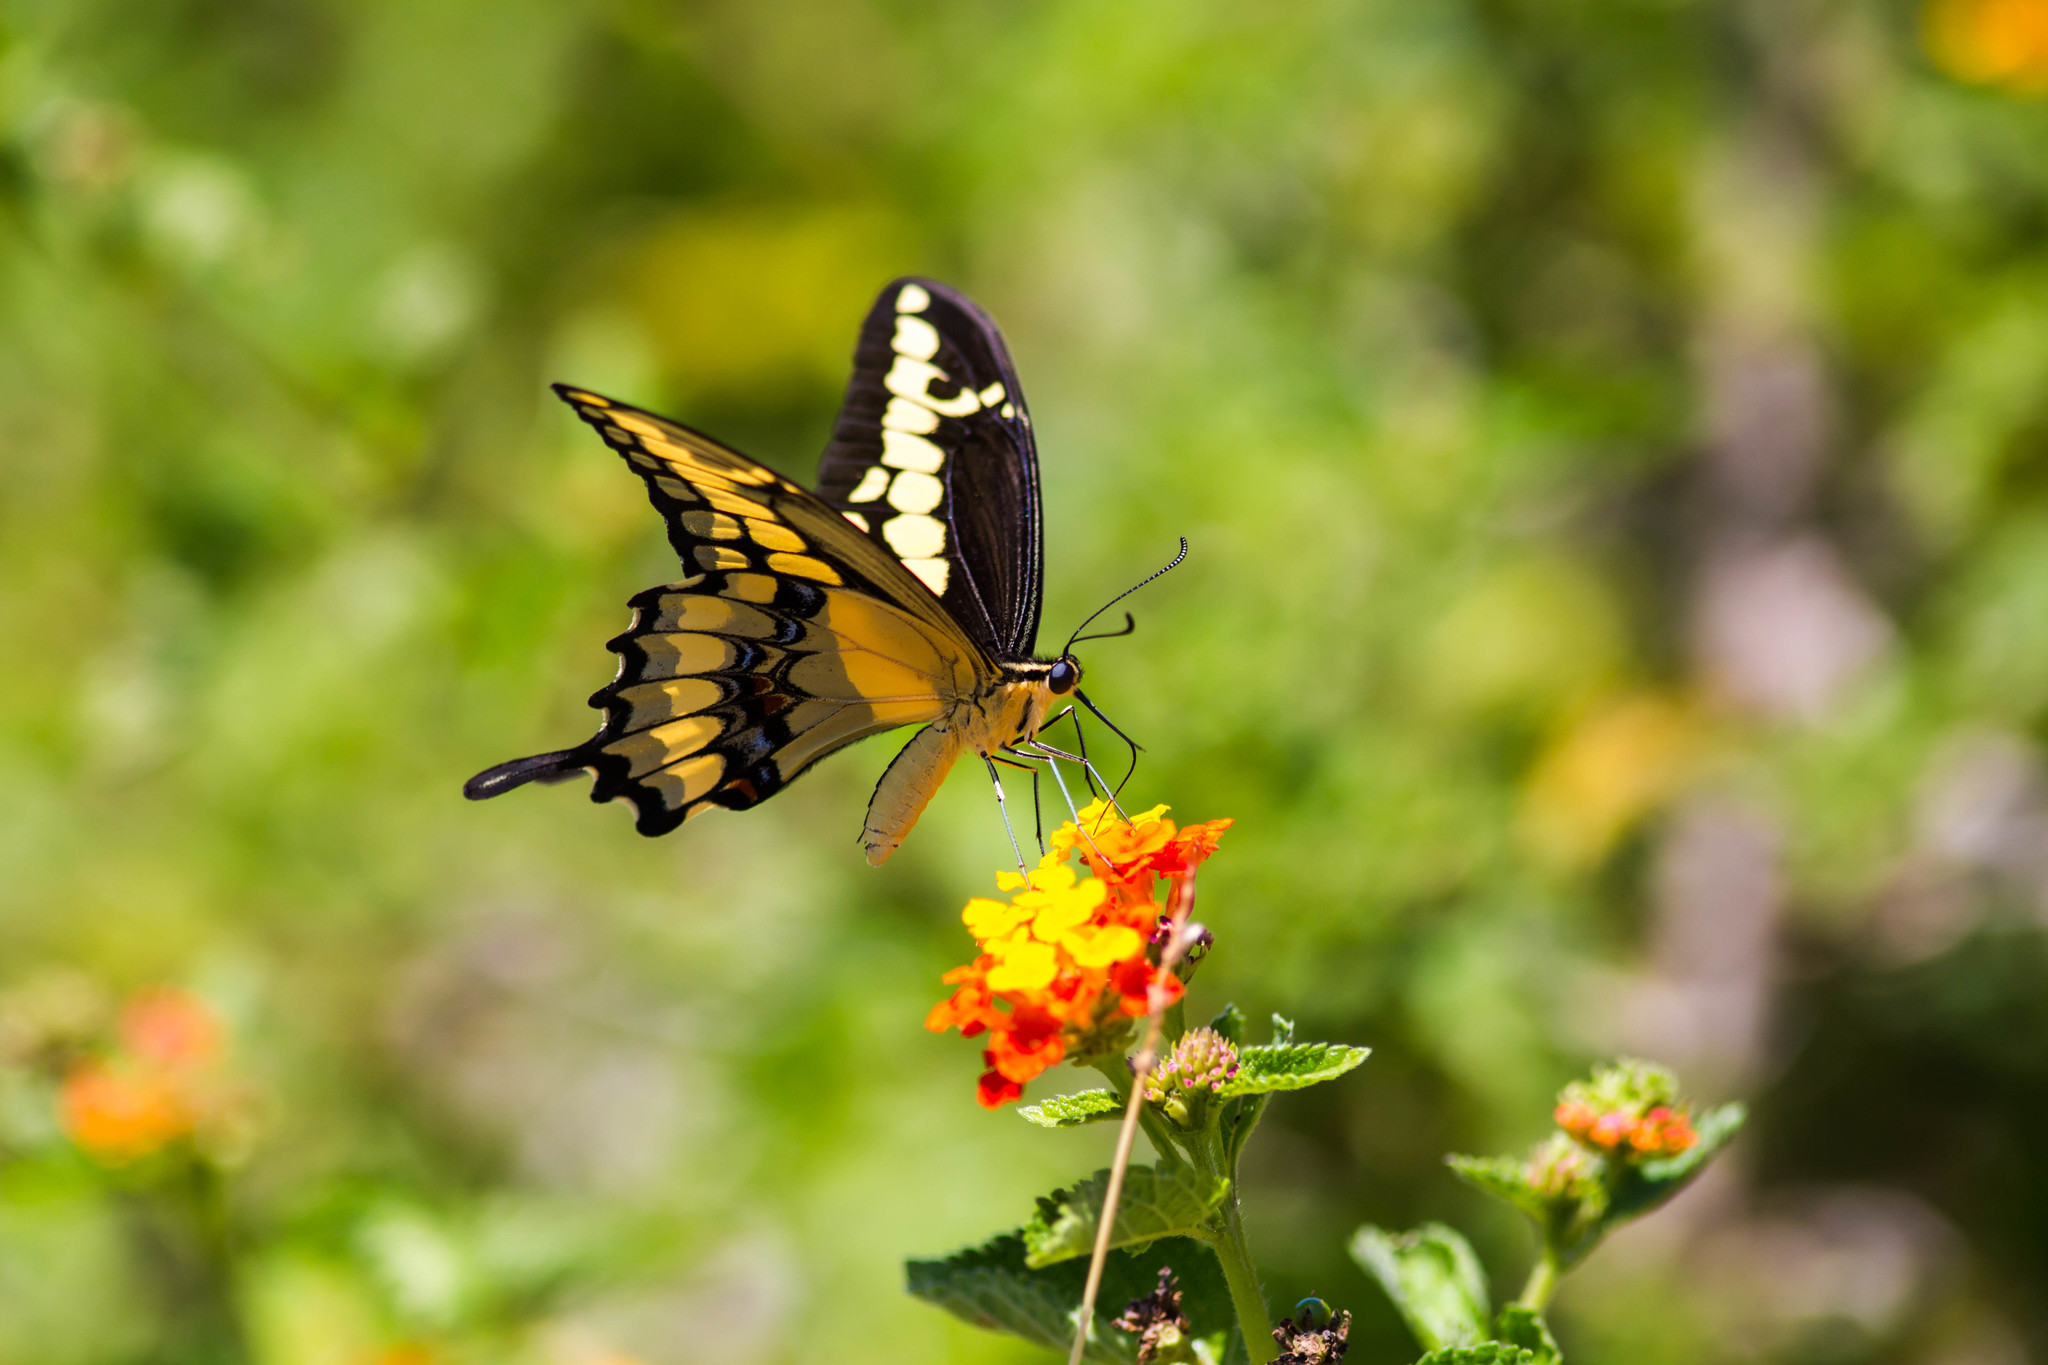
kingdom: Animalia
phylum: Arthropoda
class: Insecta
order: Lepidoptera
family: Papilionidae
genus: Papilio
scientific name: Papilio rumiko
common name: Western giant swallowtail
